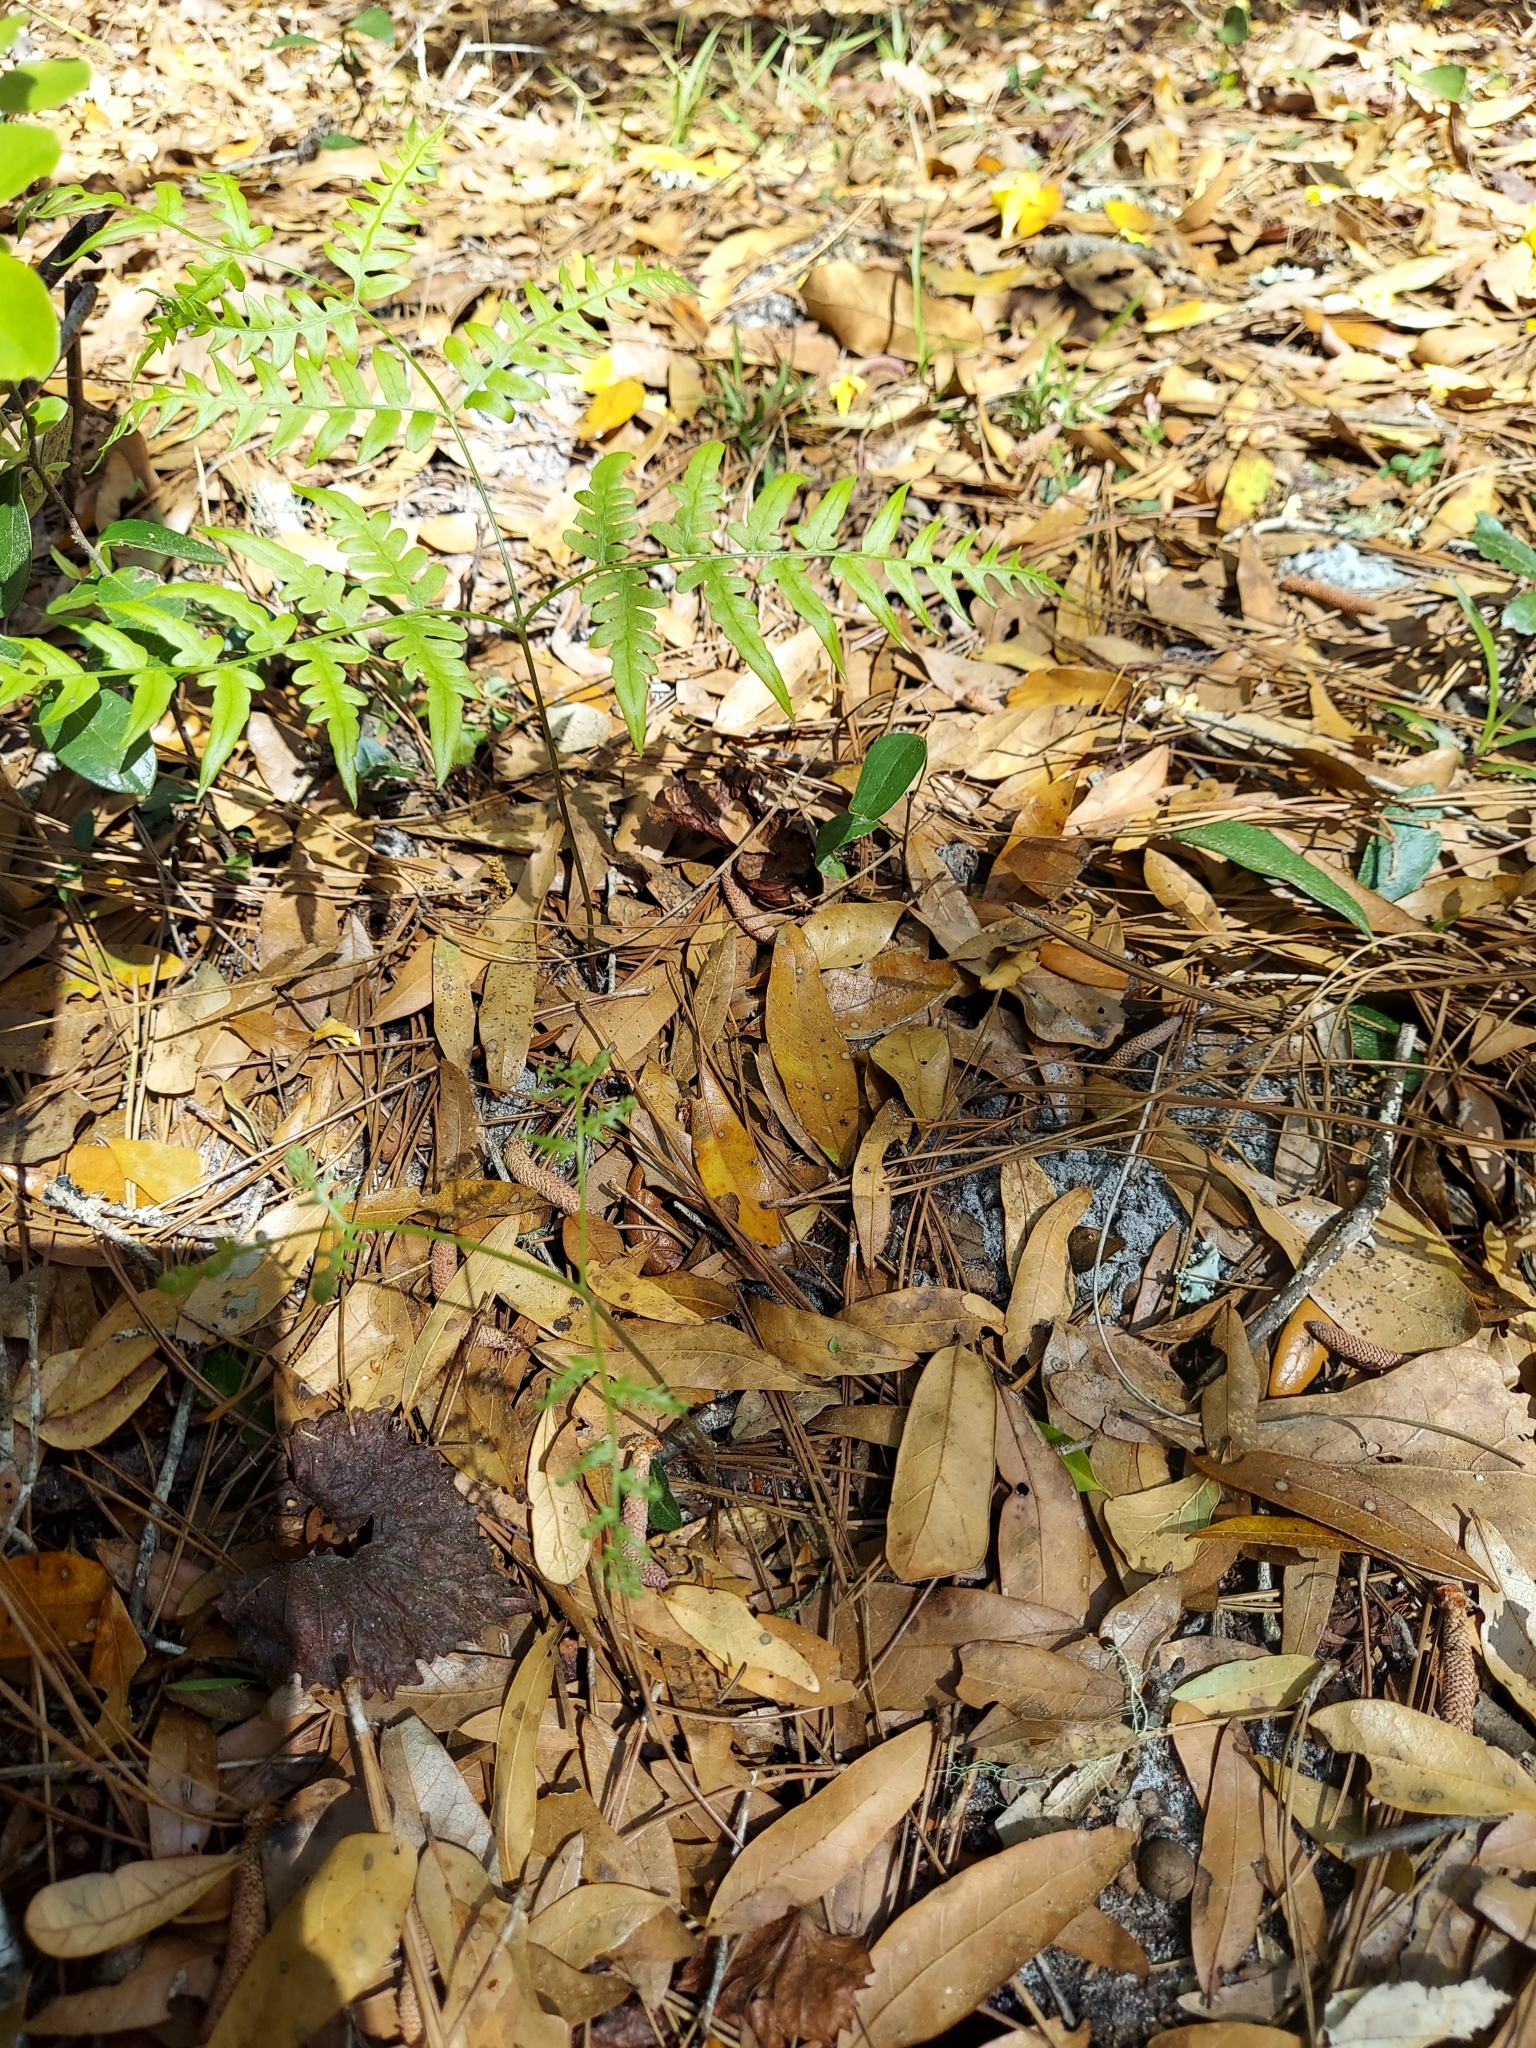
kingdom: Plantae
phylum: Tracheophyta
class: Polypodiopsida
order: Polypodiales
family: Dennstaedtiaceae
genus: Pteridium
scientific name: Pteridium
